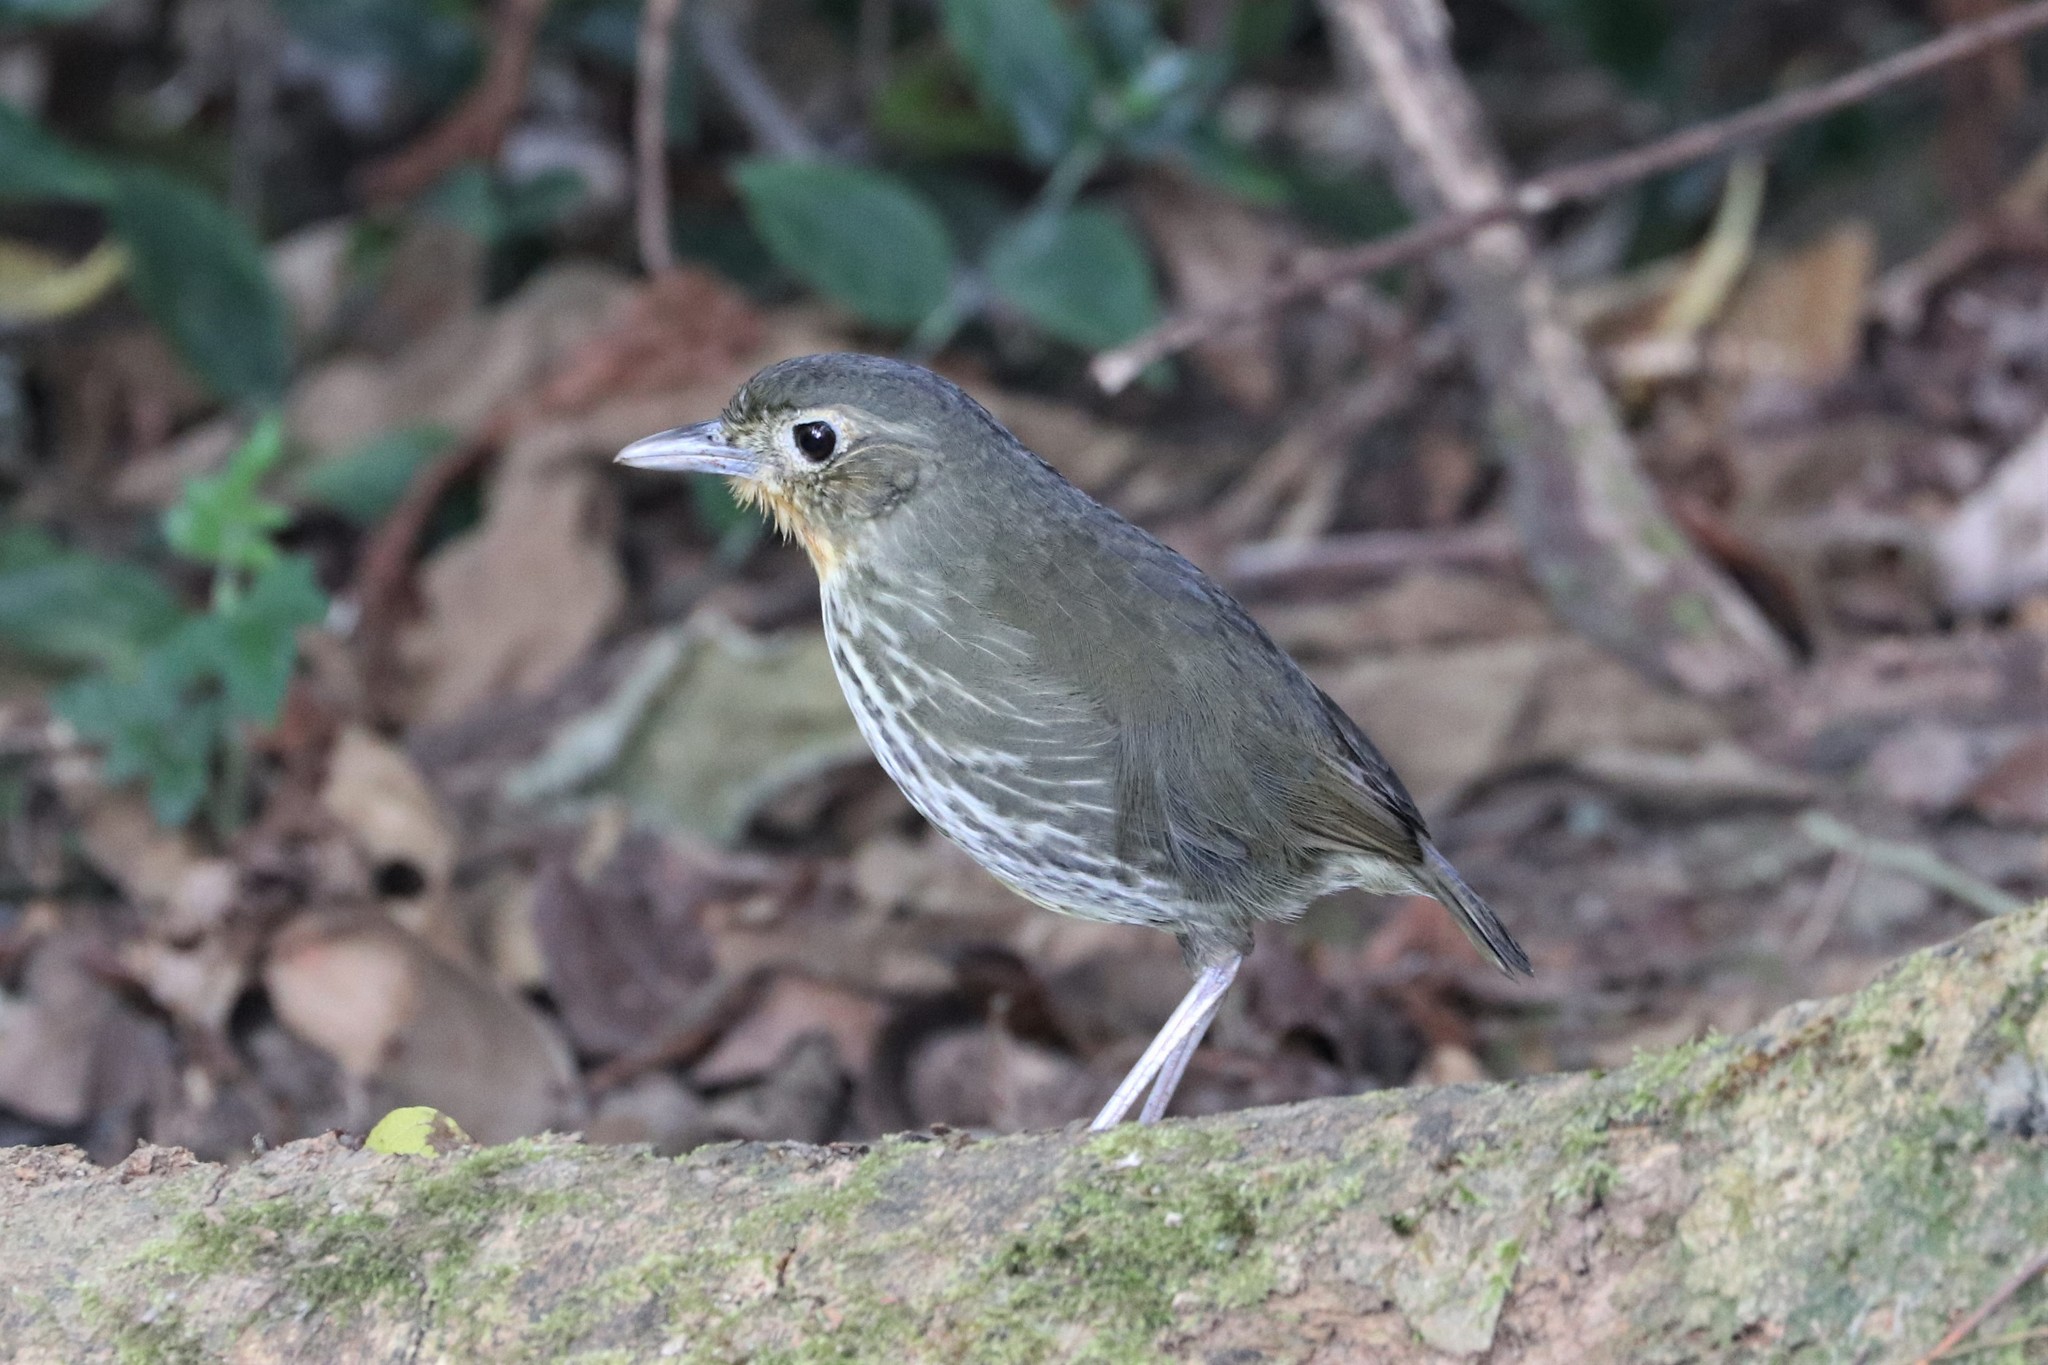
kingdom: Animalia
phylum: Chordata
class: Aves
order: Passeriformes
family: Grallariidae
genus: Grallaria
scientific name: Grallaria bangsi
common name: Santa marta antpitta
